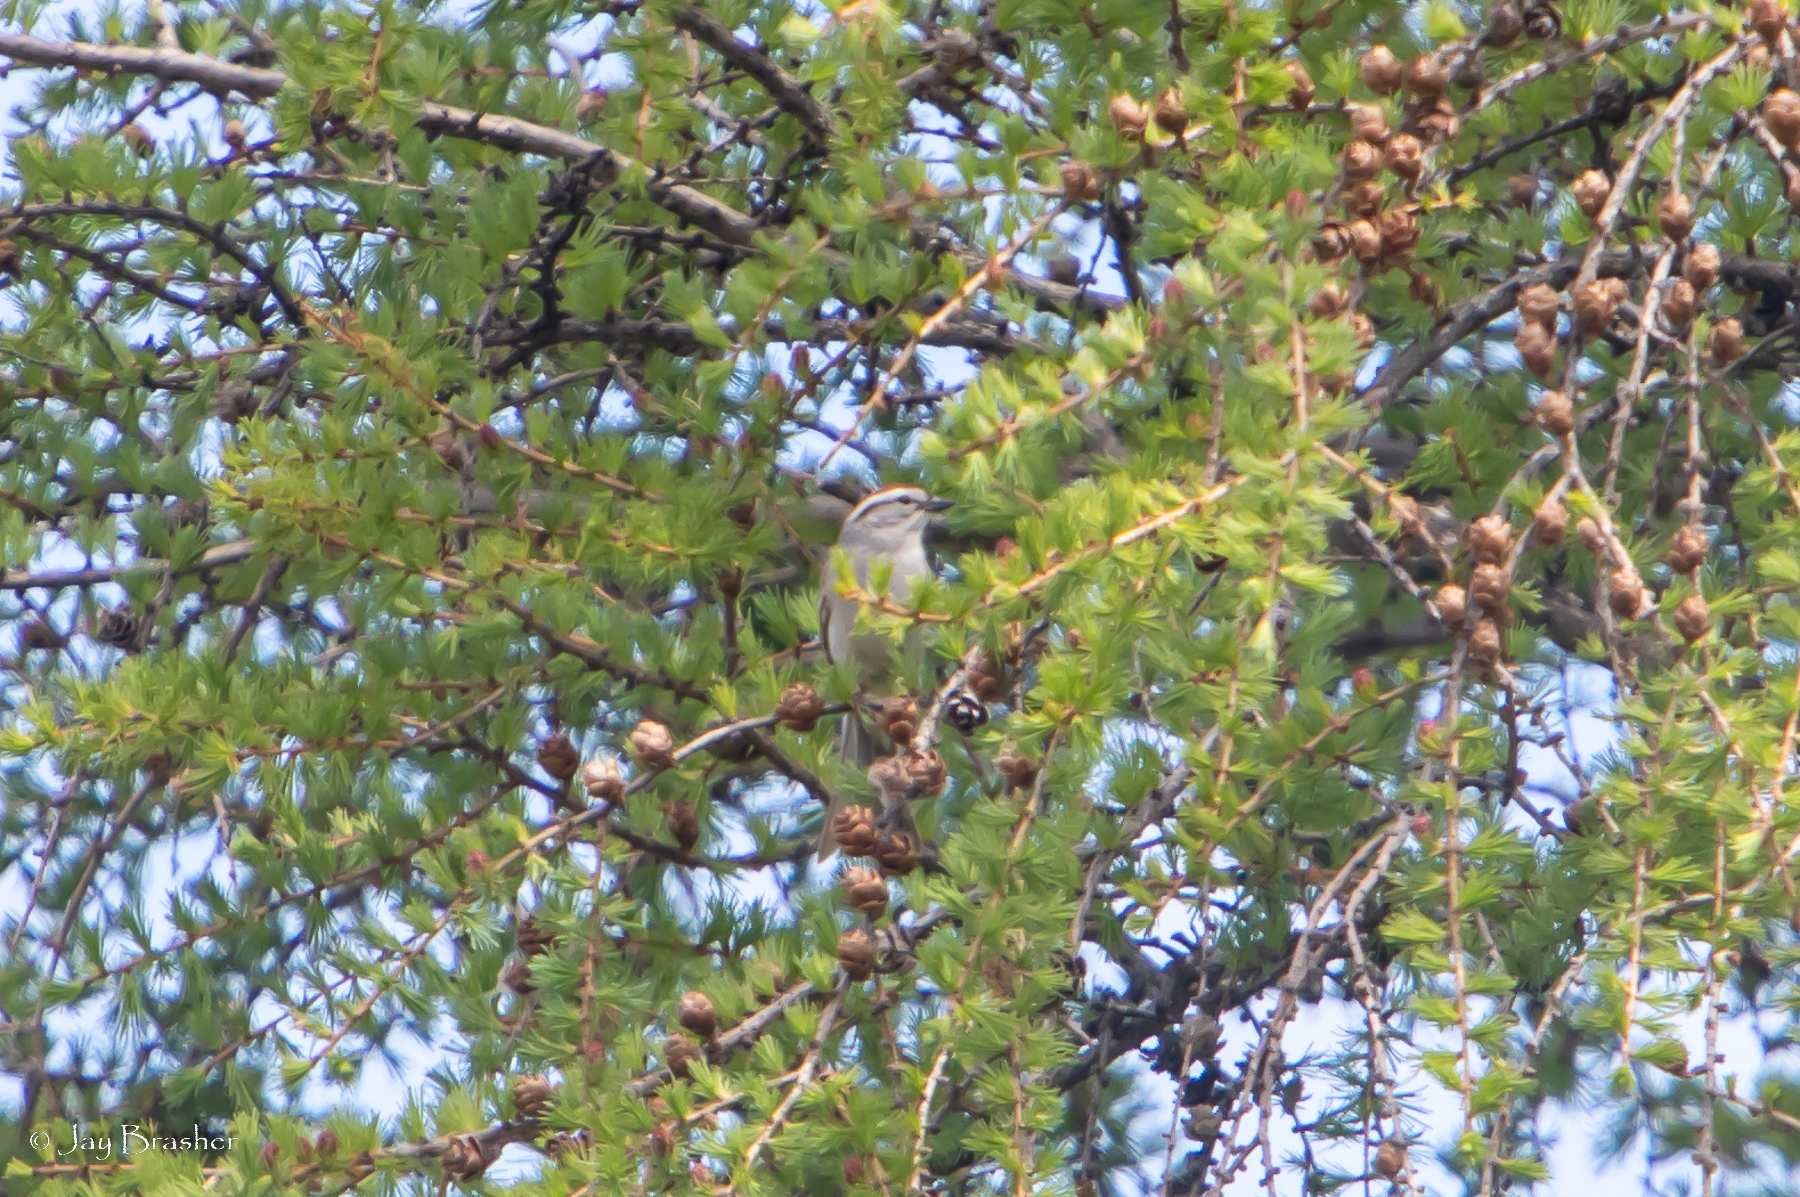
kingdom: Animalia
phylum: Chordata
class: Aves
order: Passeriformes
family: Passerellidae
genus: Spizella
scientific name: Spizella passerina
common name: Chipping sparrow
